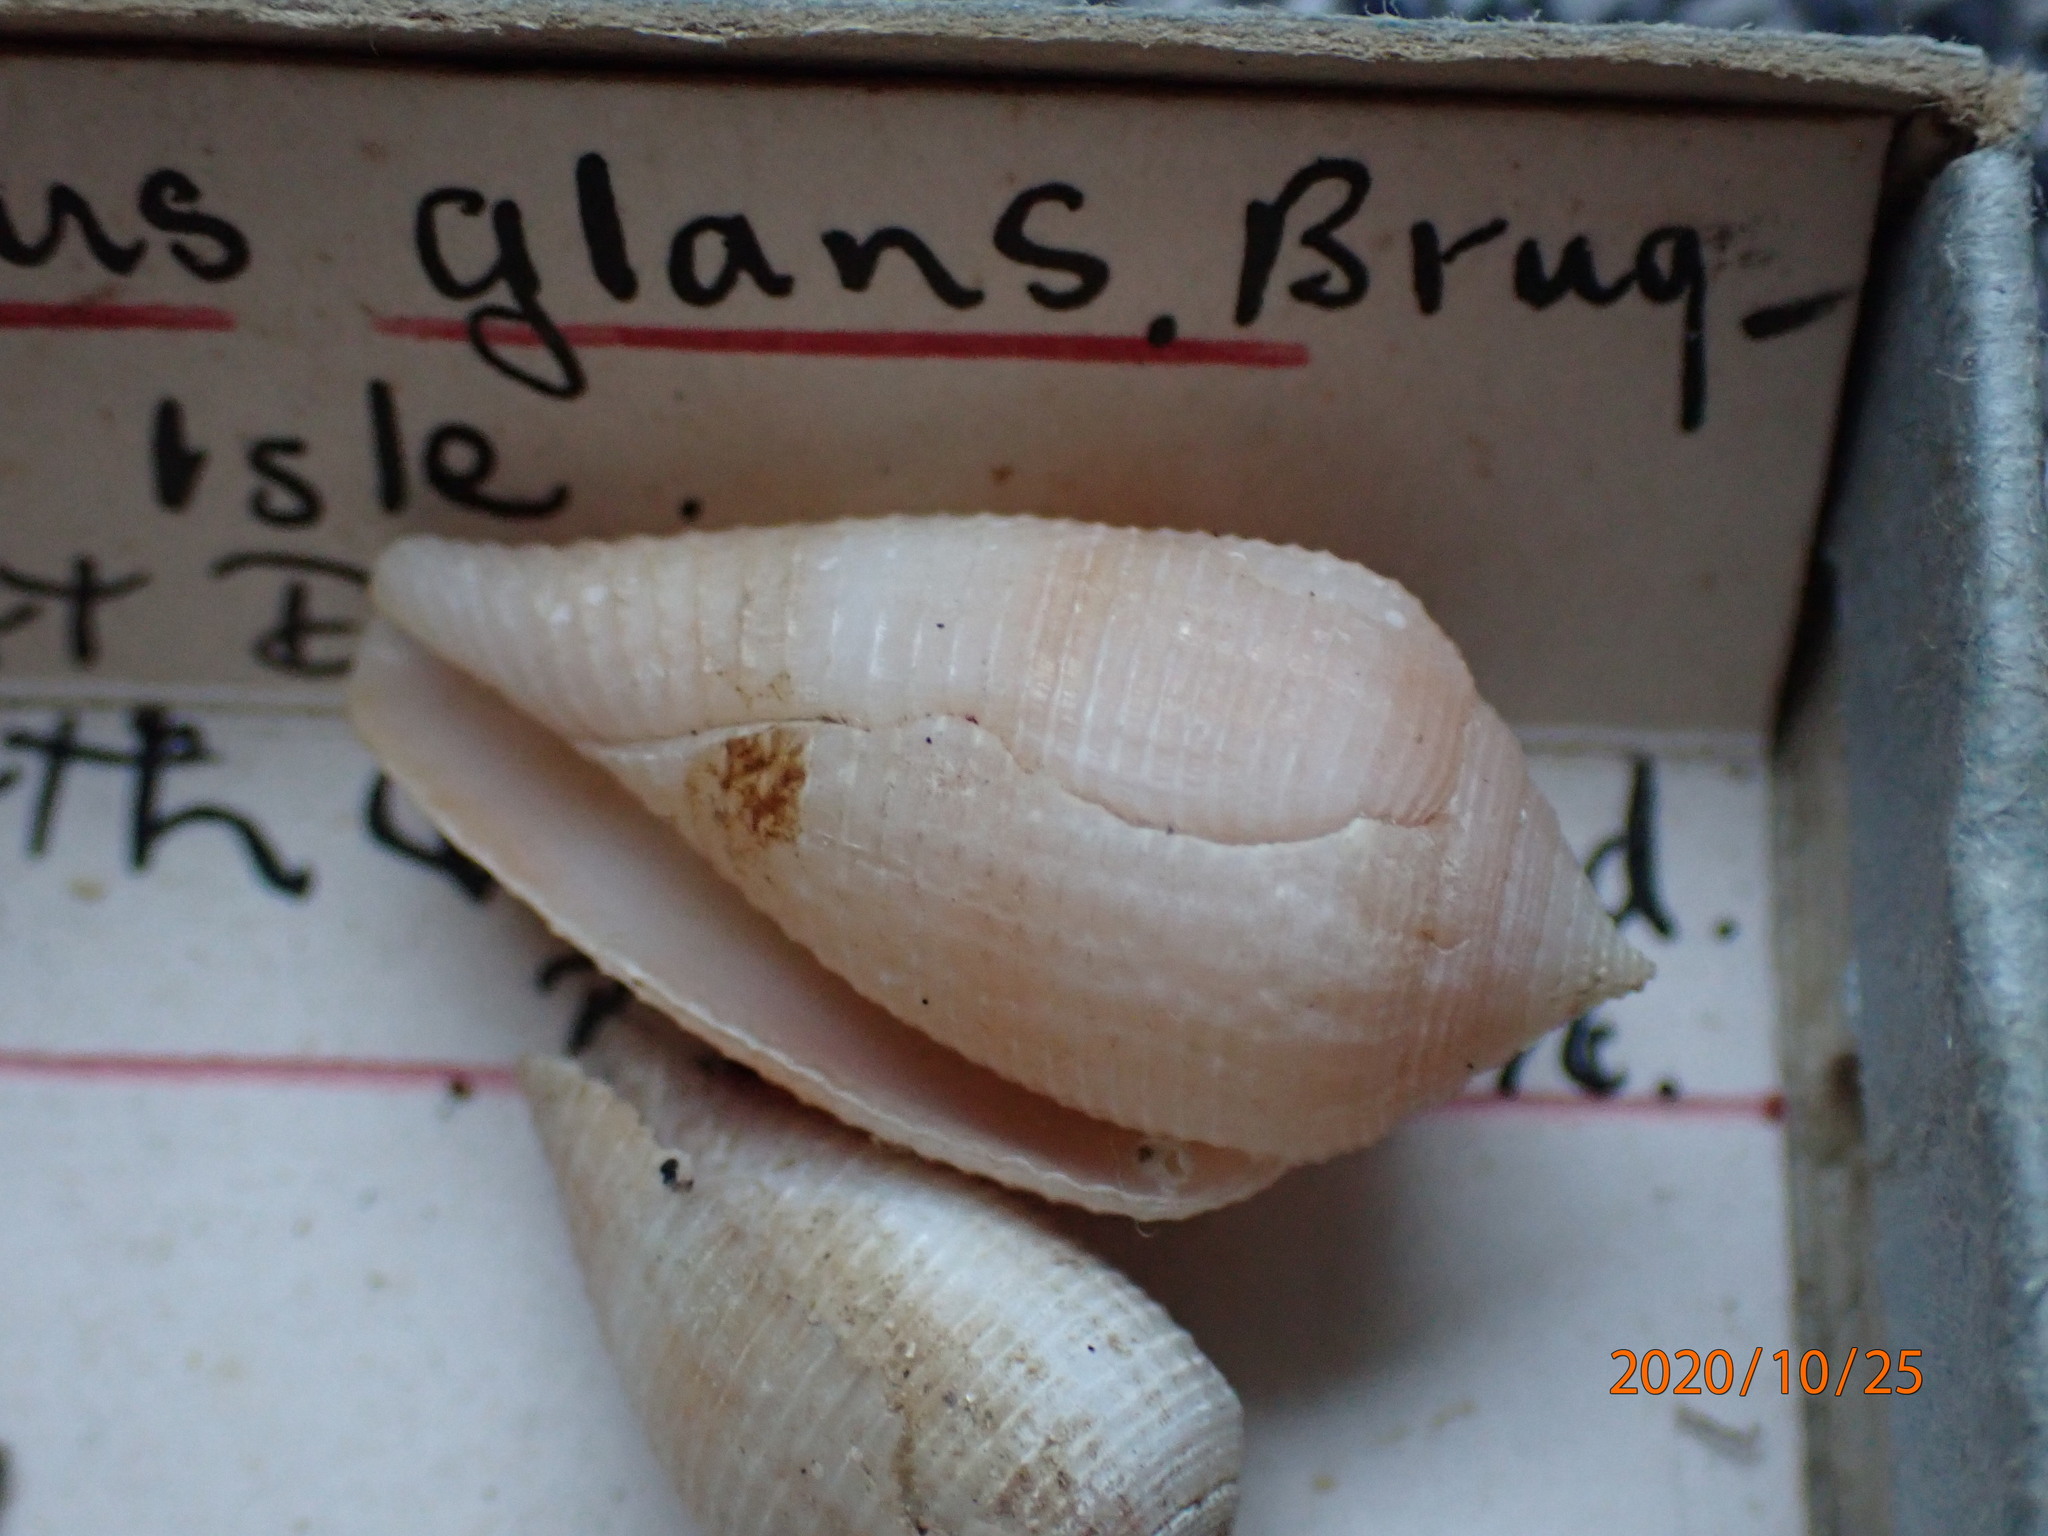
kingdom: Animalia
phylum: Mollusca
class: Gastropoda
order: Neogastropoda
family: Conidae
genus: Conus
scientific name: Conus glans
